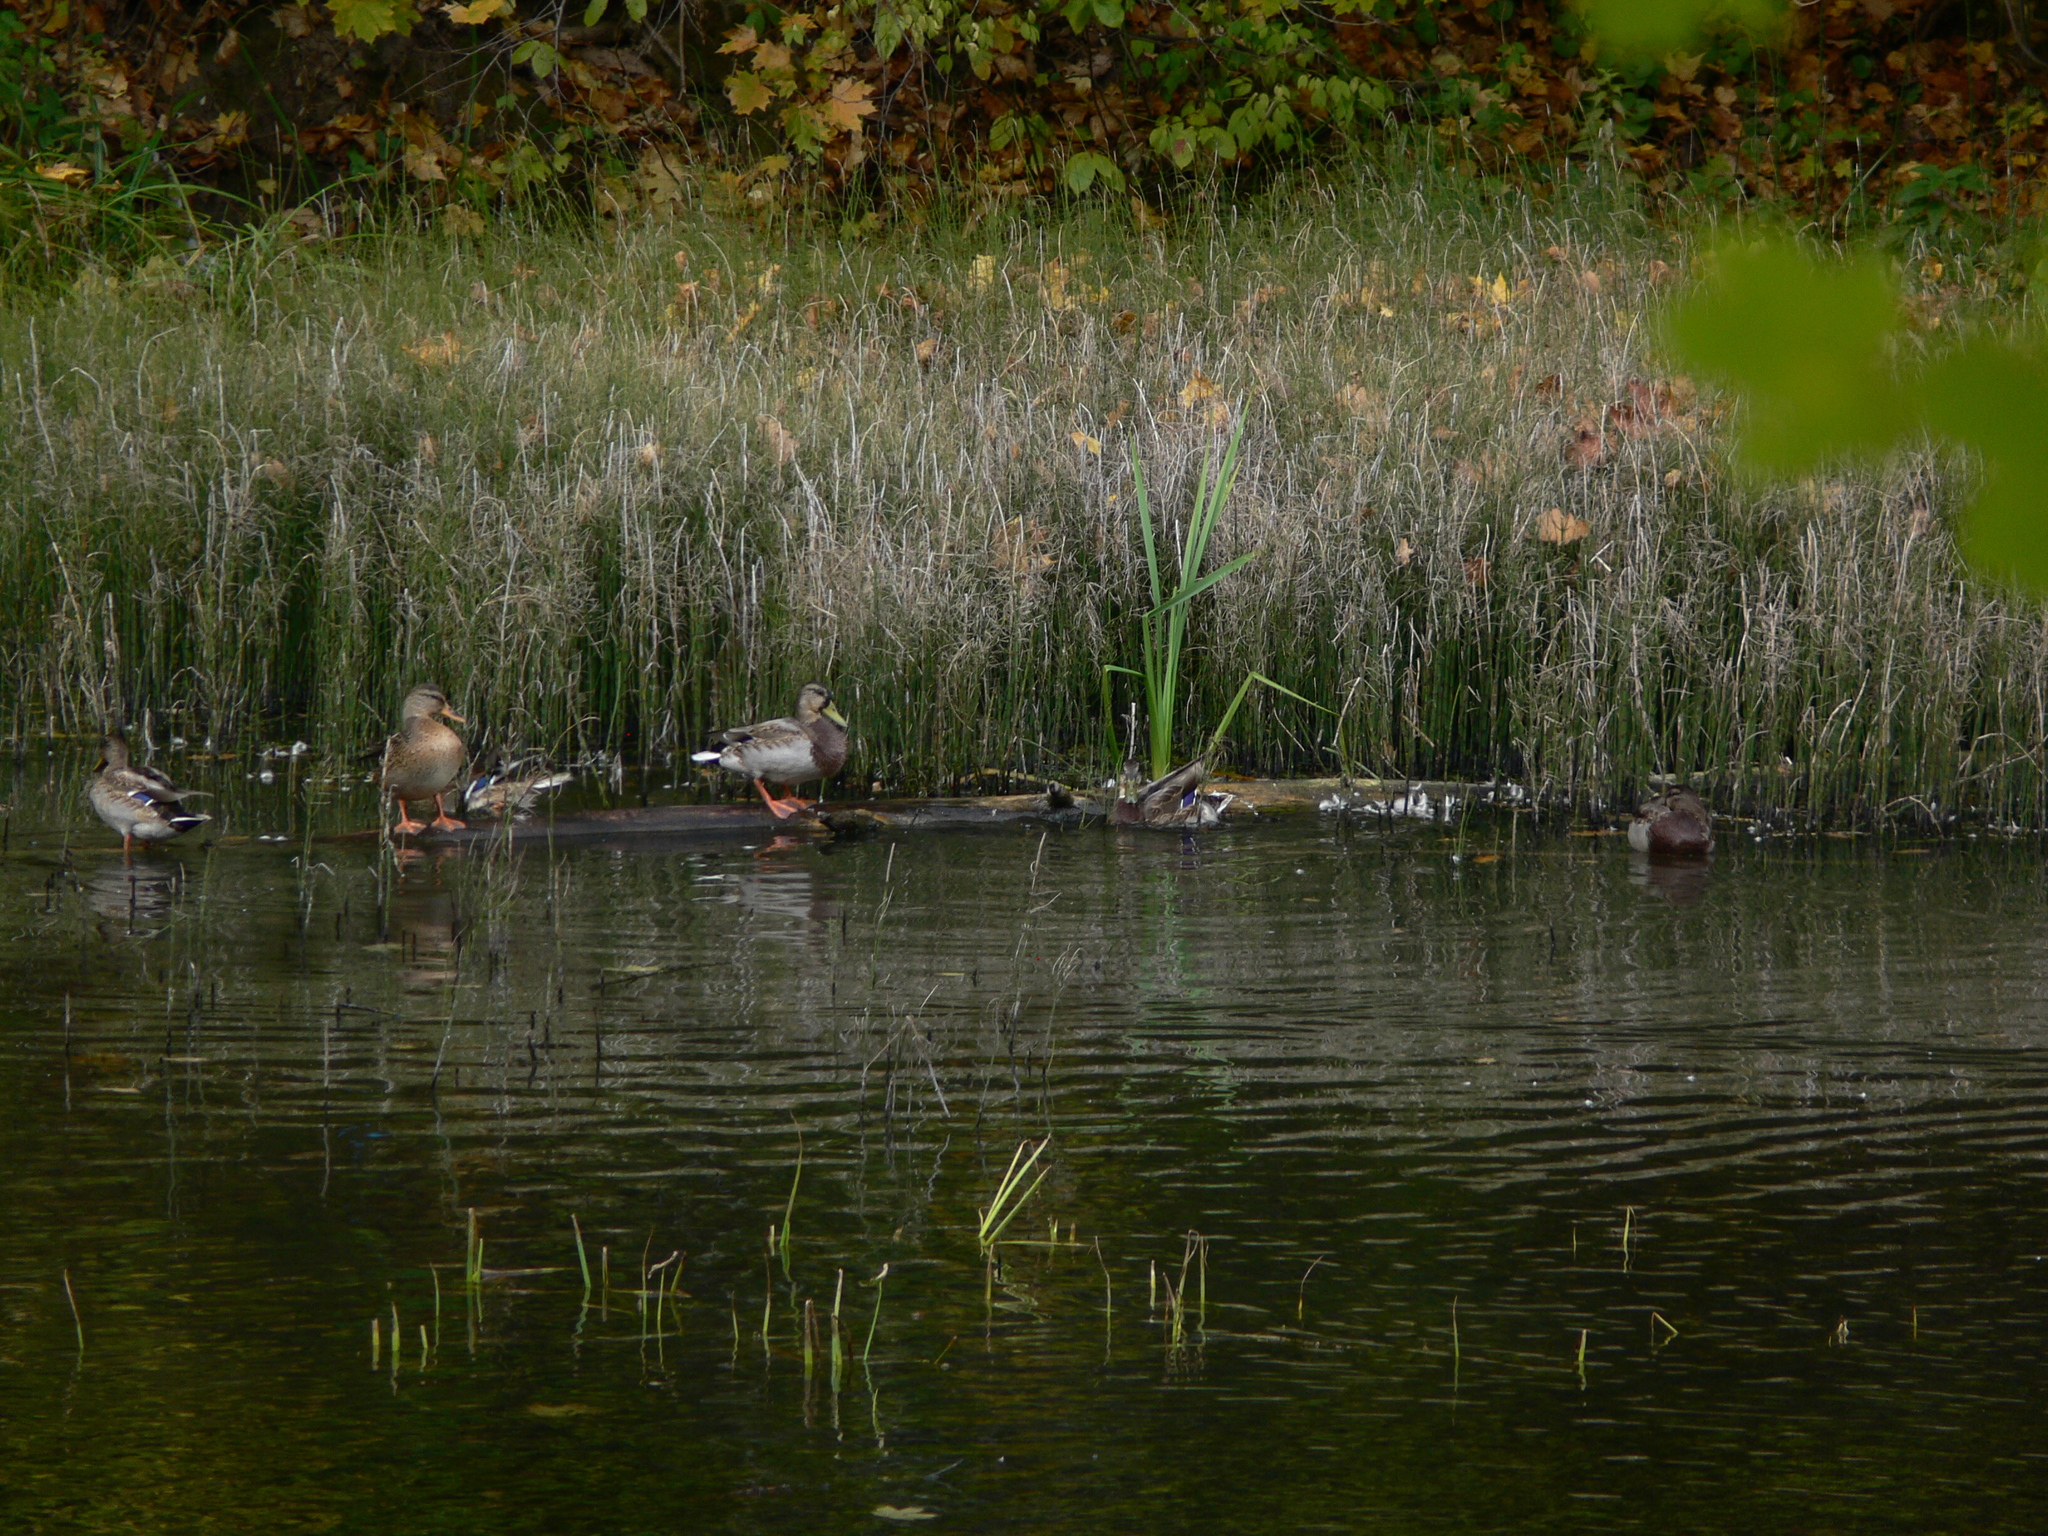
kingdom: Animalia
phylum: Chordata
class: Aves
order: Anseriformes
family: Anatidae
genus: Anas
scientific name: Anas platyrhynchos
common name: Mallard
